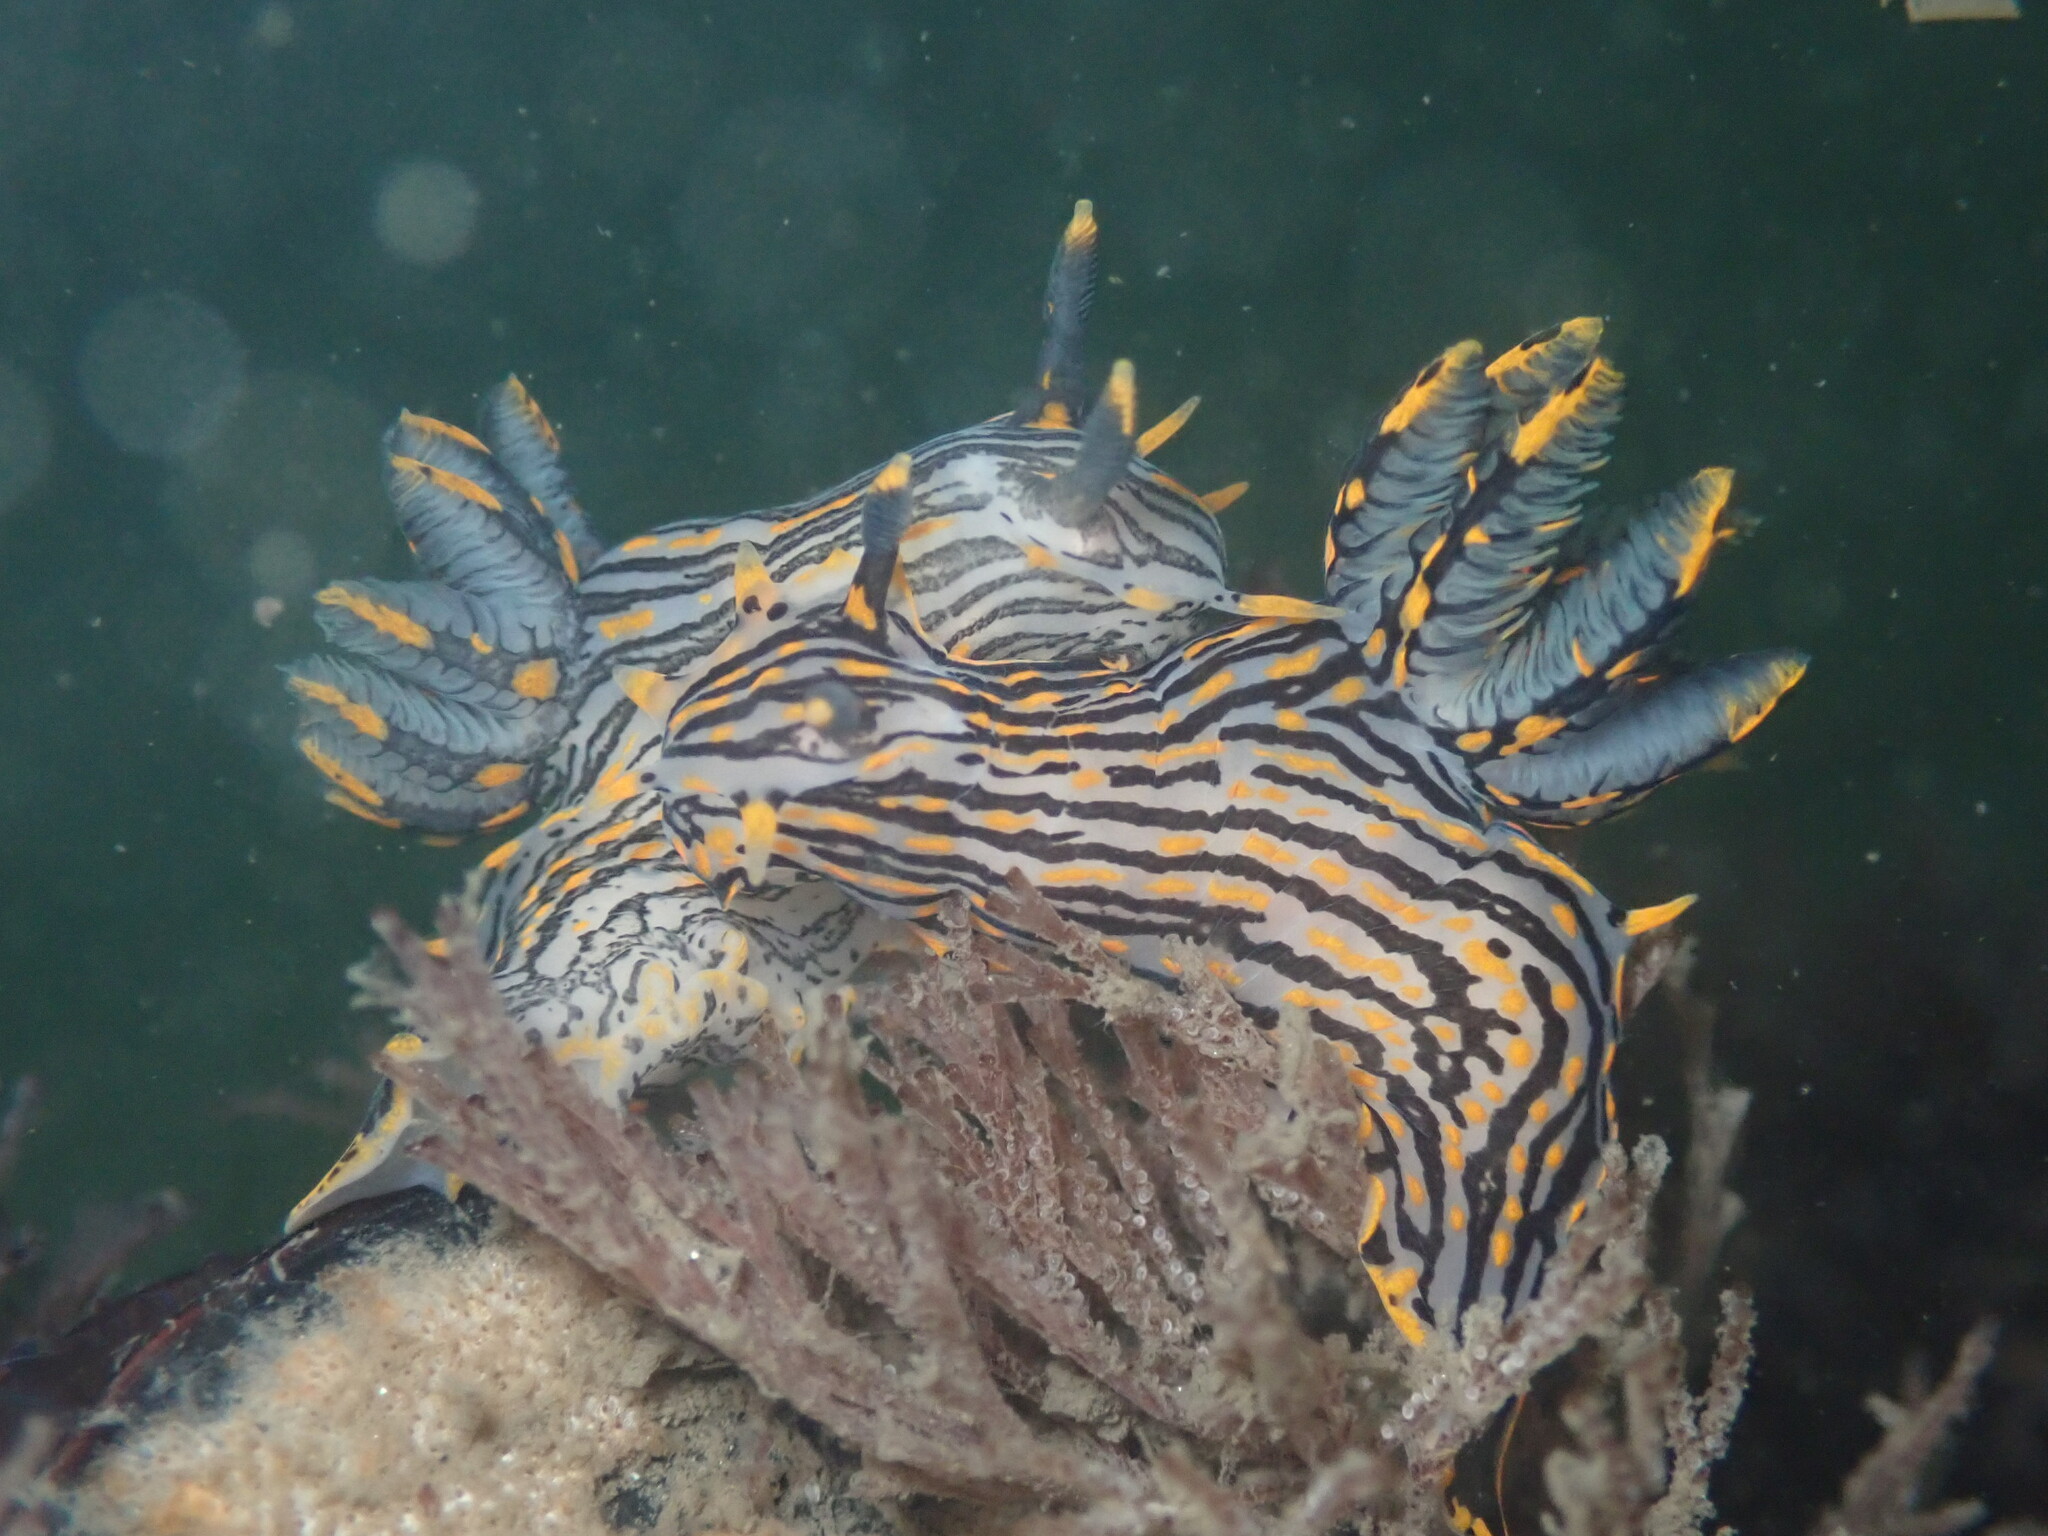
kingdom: Animalia
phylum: Mollusca
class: Gastropoda
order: Nudibranchia
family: Polyceridae
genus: Polycera
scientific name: Polycera atra
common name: Orange-spike polycera
